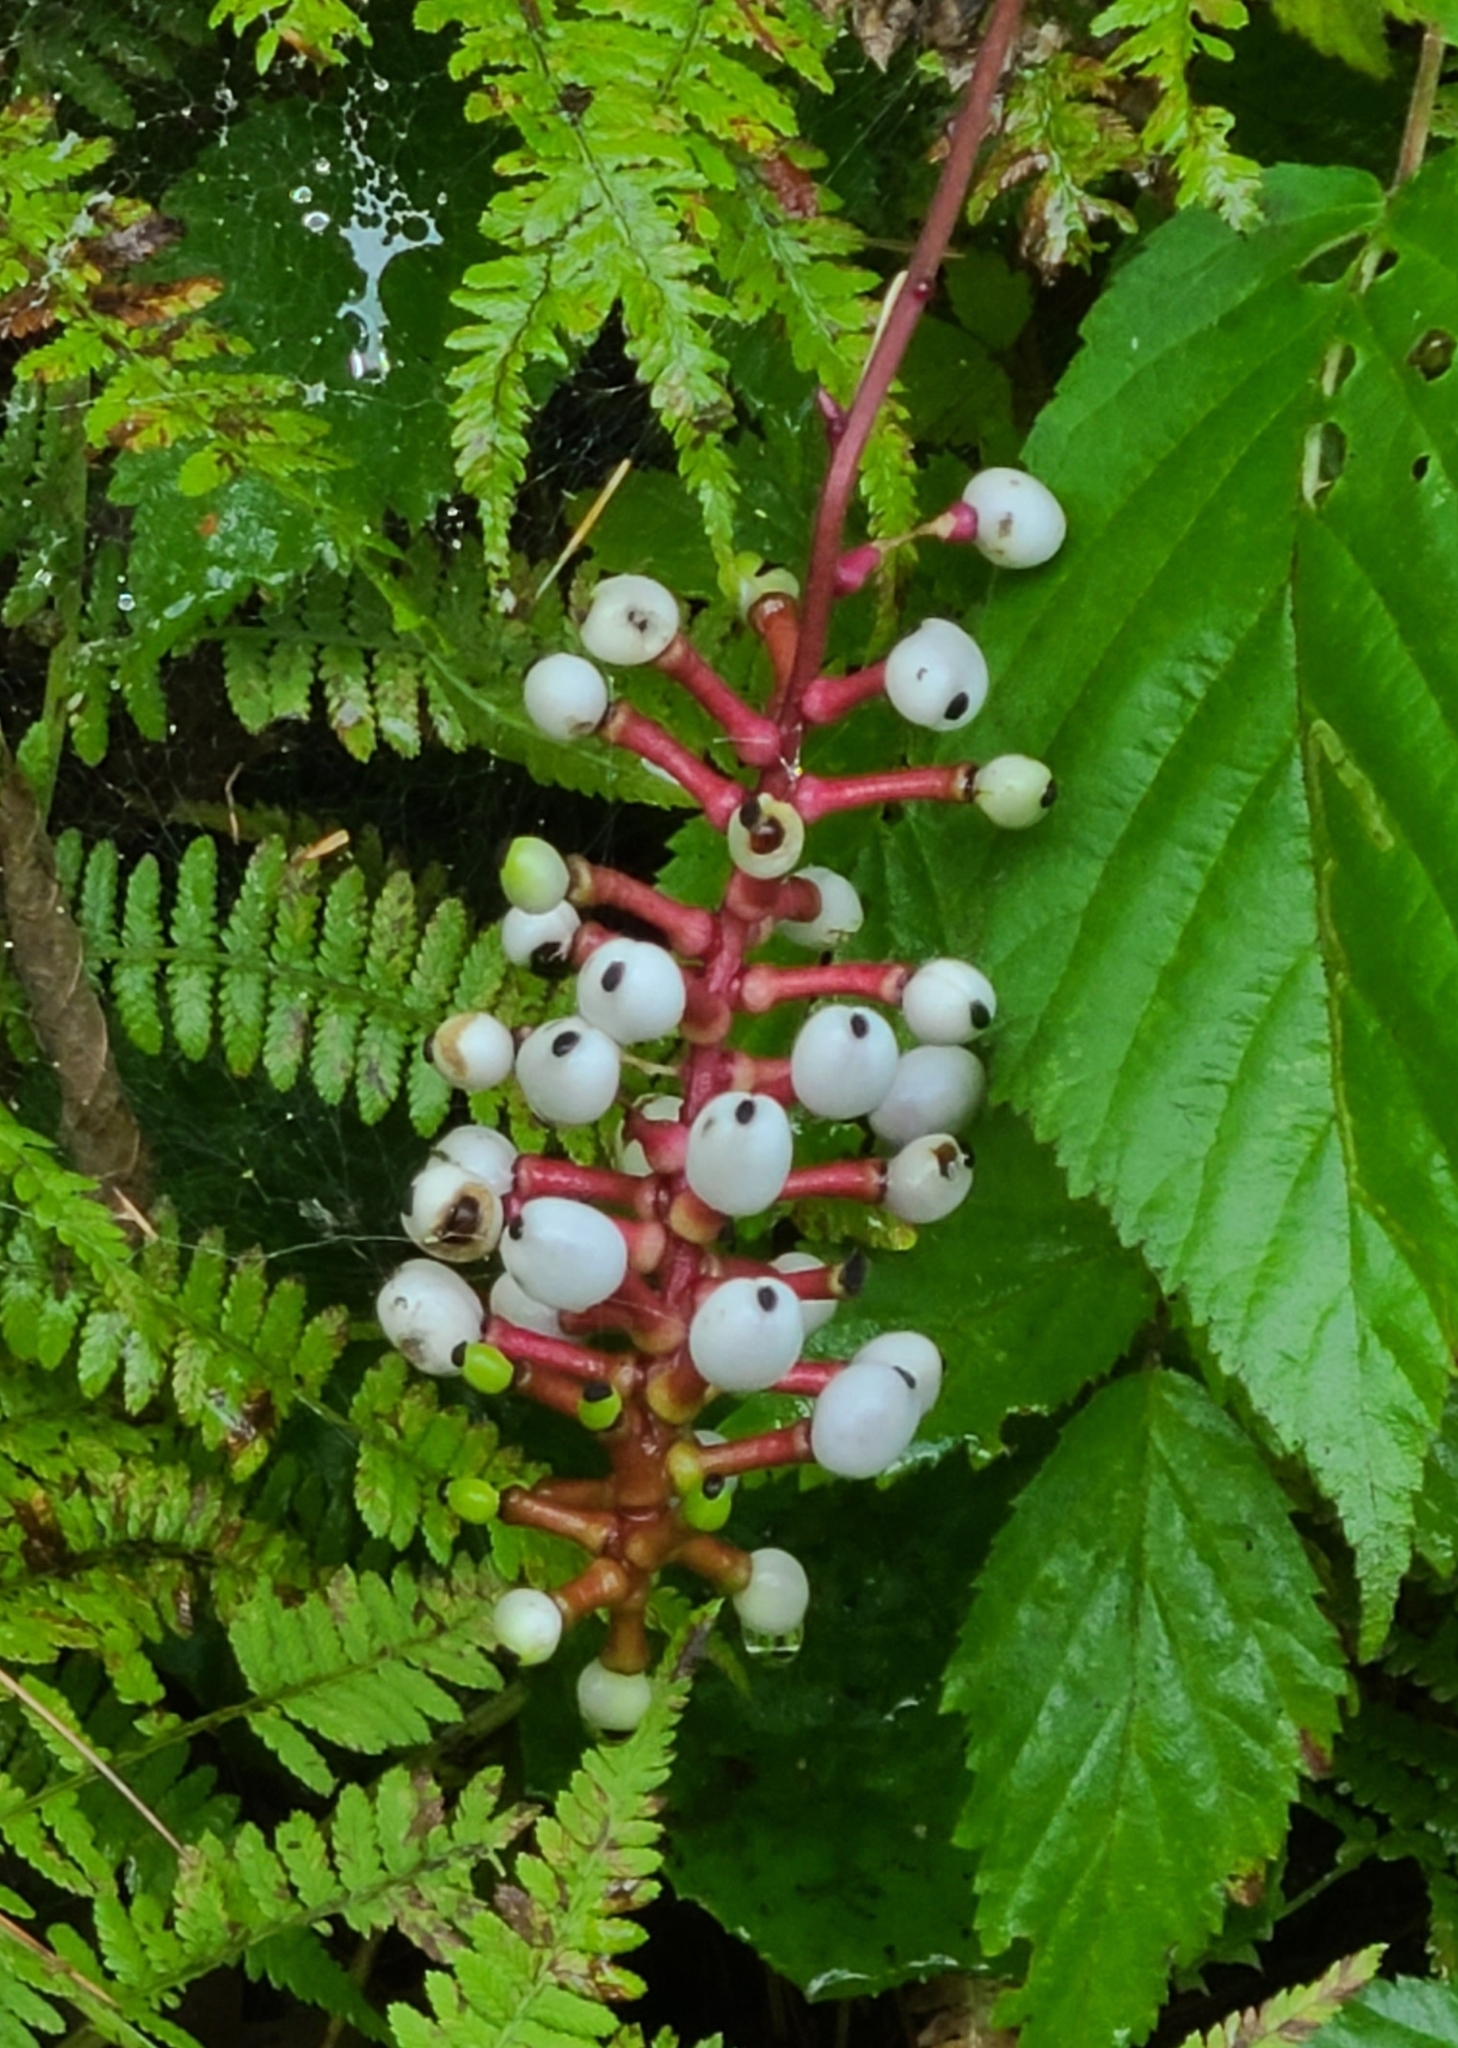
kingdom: Plantae
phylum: Tracheophyta
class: Magnoliopsida
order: Ranunculales
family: Ranunculaceae
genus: Actaea
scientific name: Actaea pachypoda
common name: Doll's-eyes
